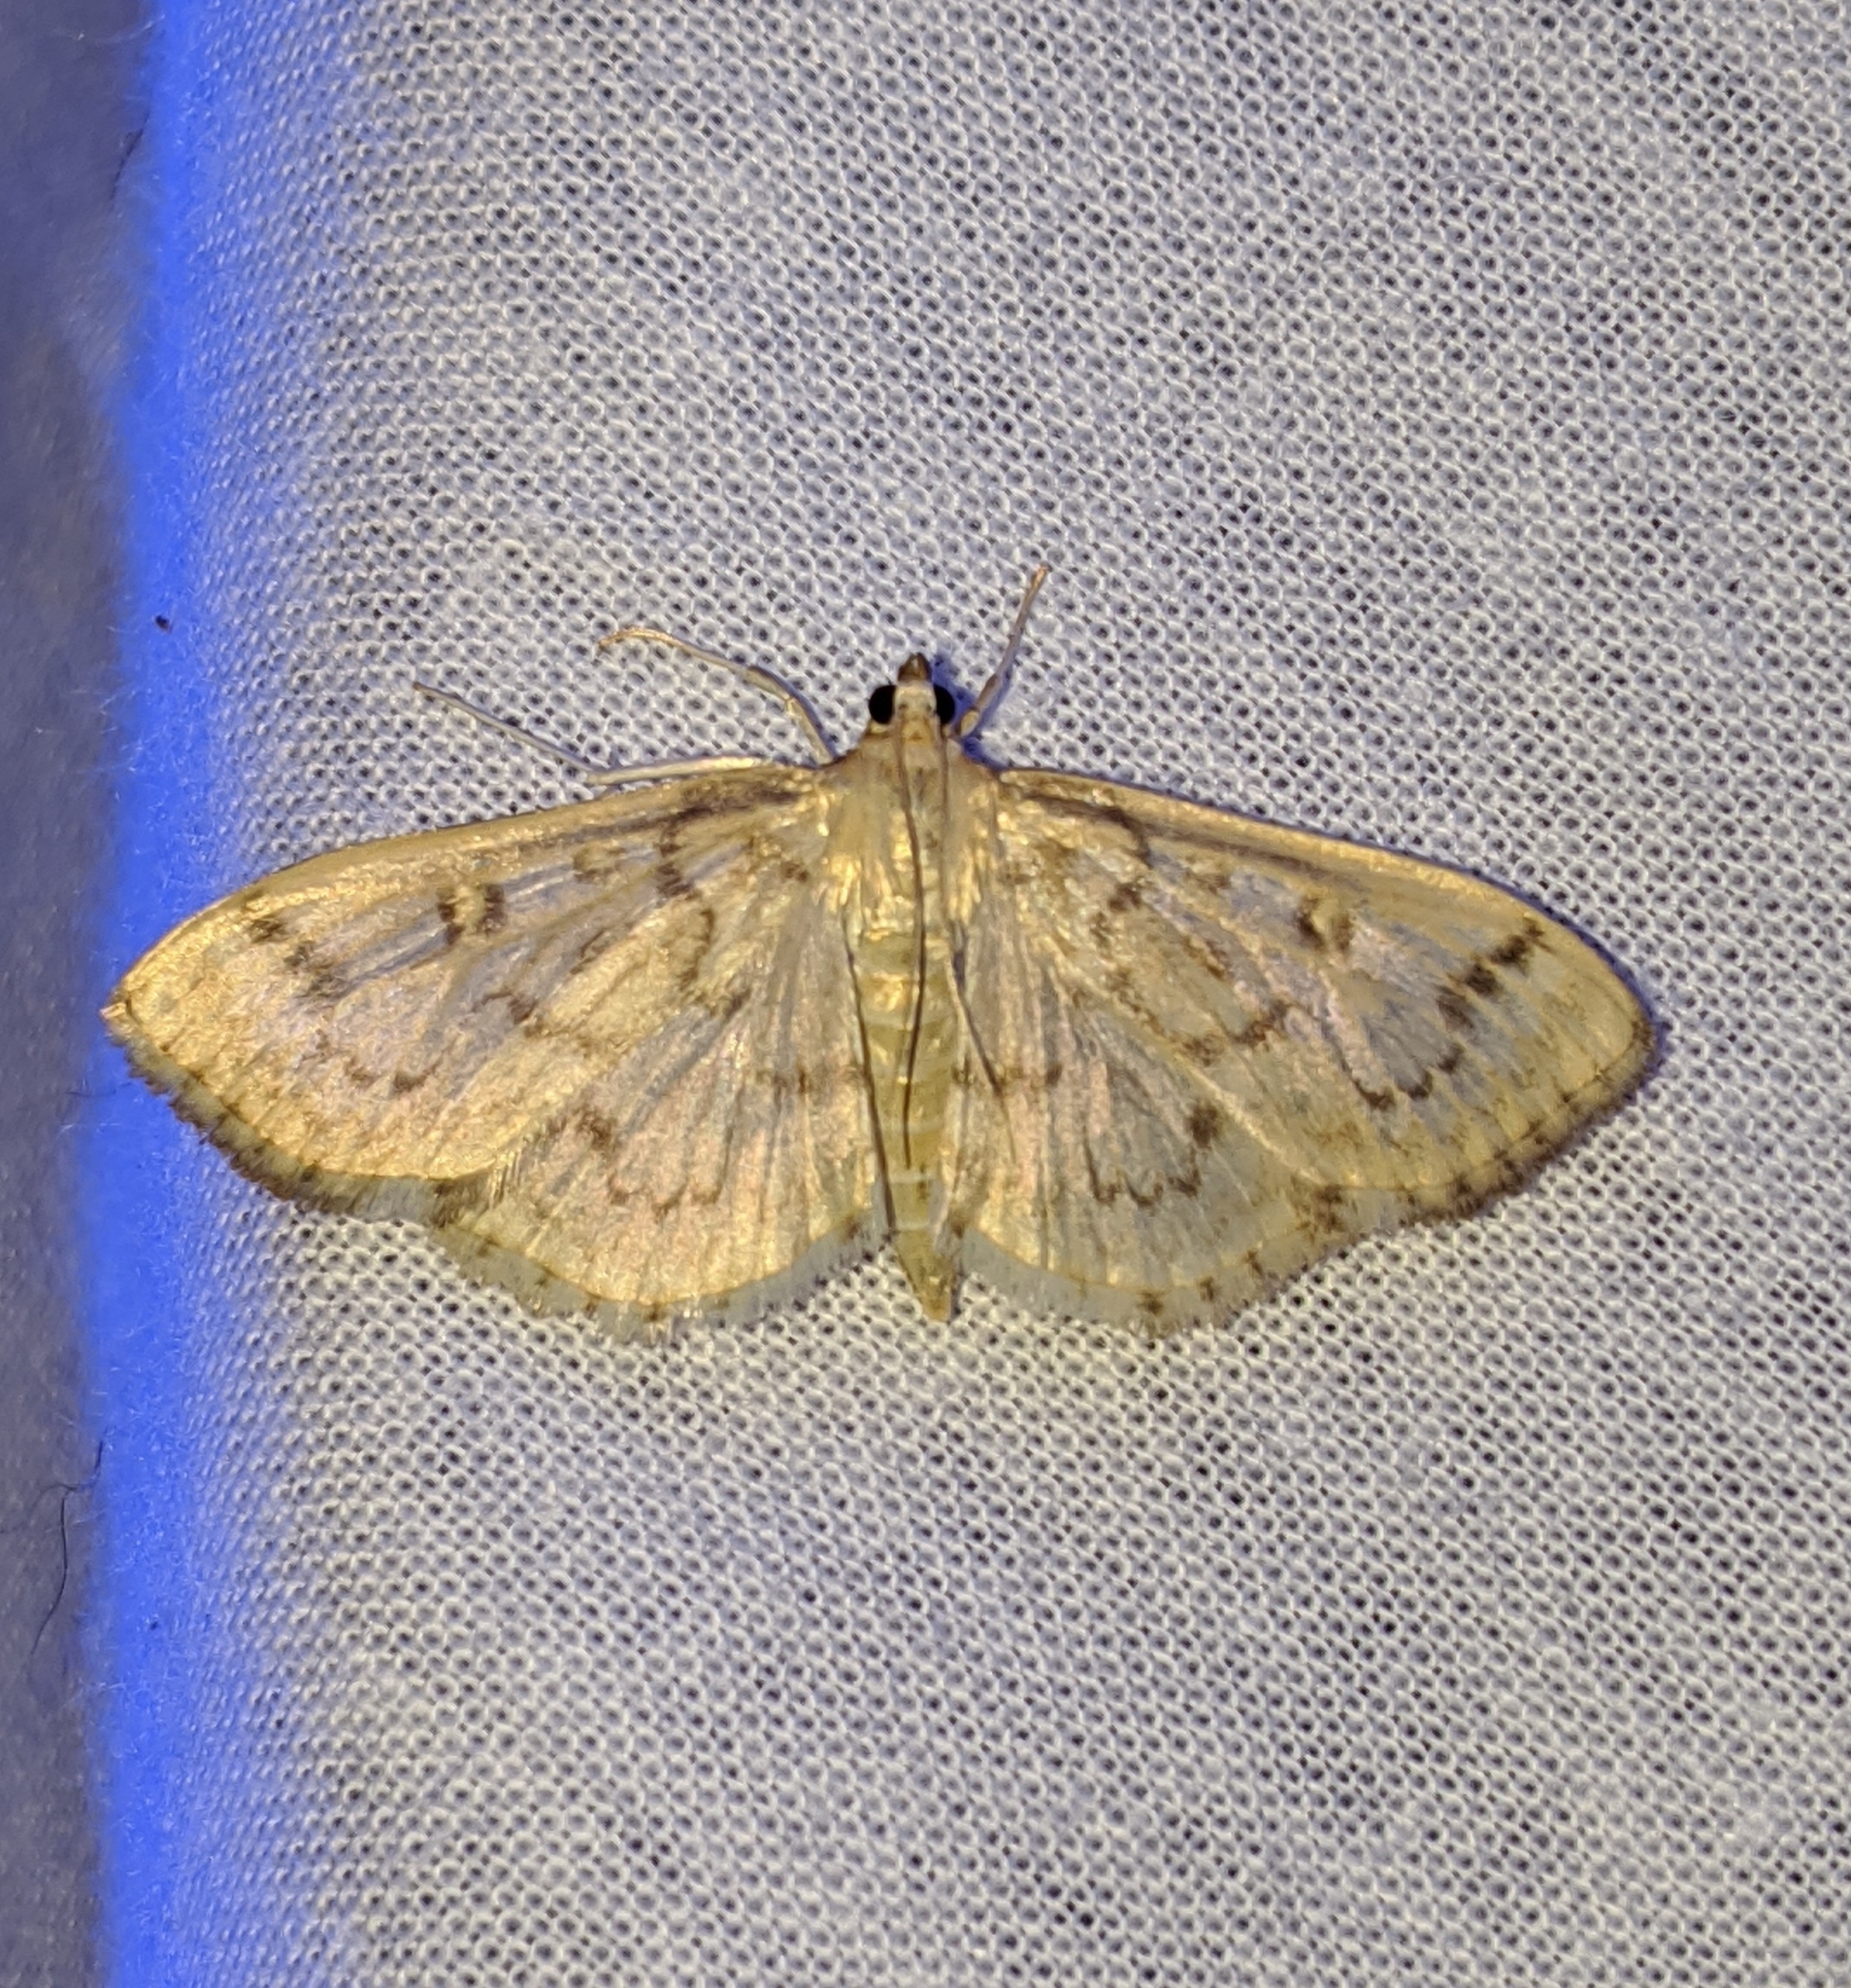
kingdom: Animalia
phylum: Arthropoda
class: Insecta
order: Lepidoptera
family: Crambidae
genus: Herpetogramma
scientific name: Herpetogramma aquilonalis
